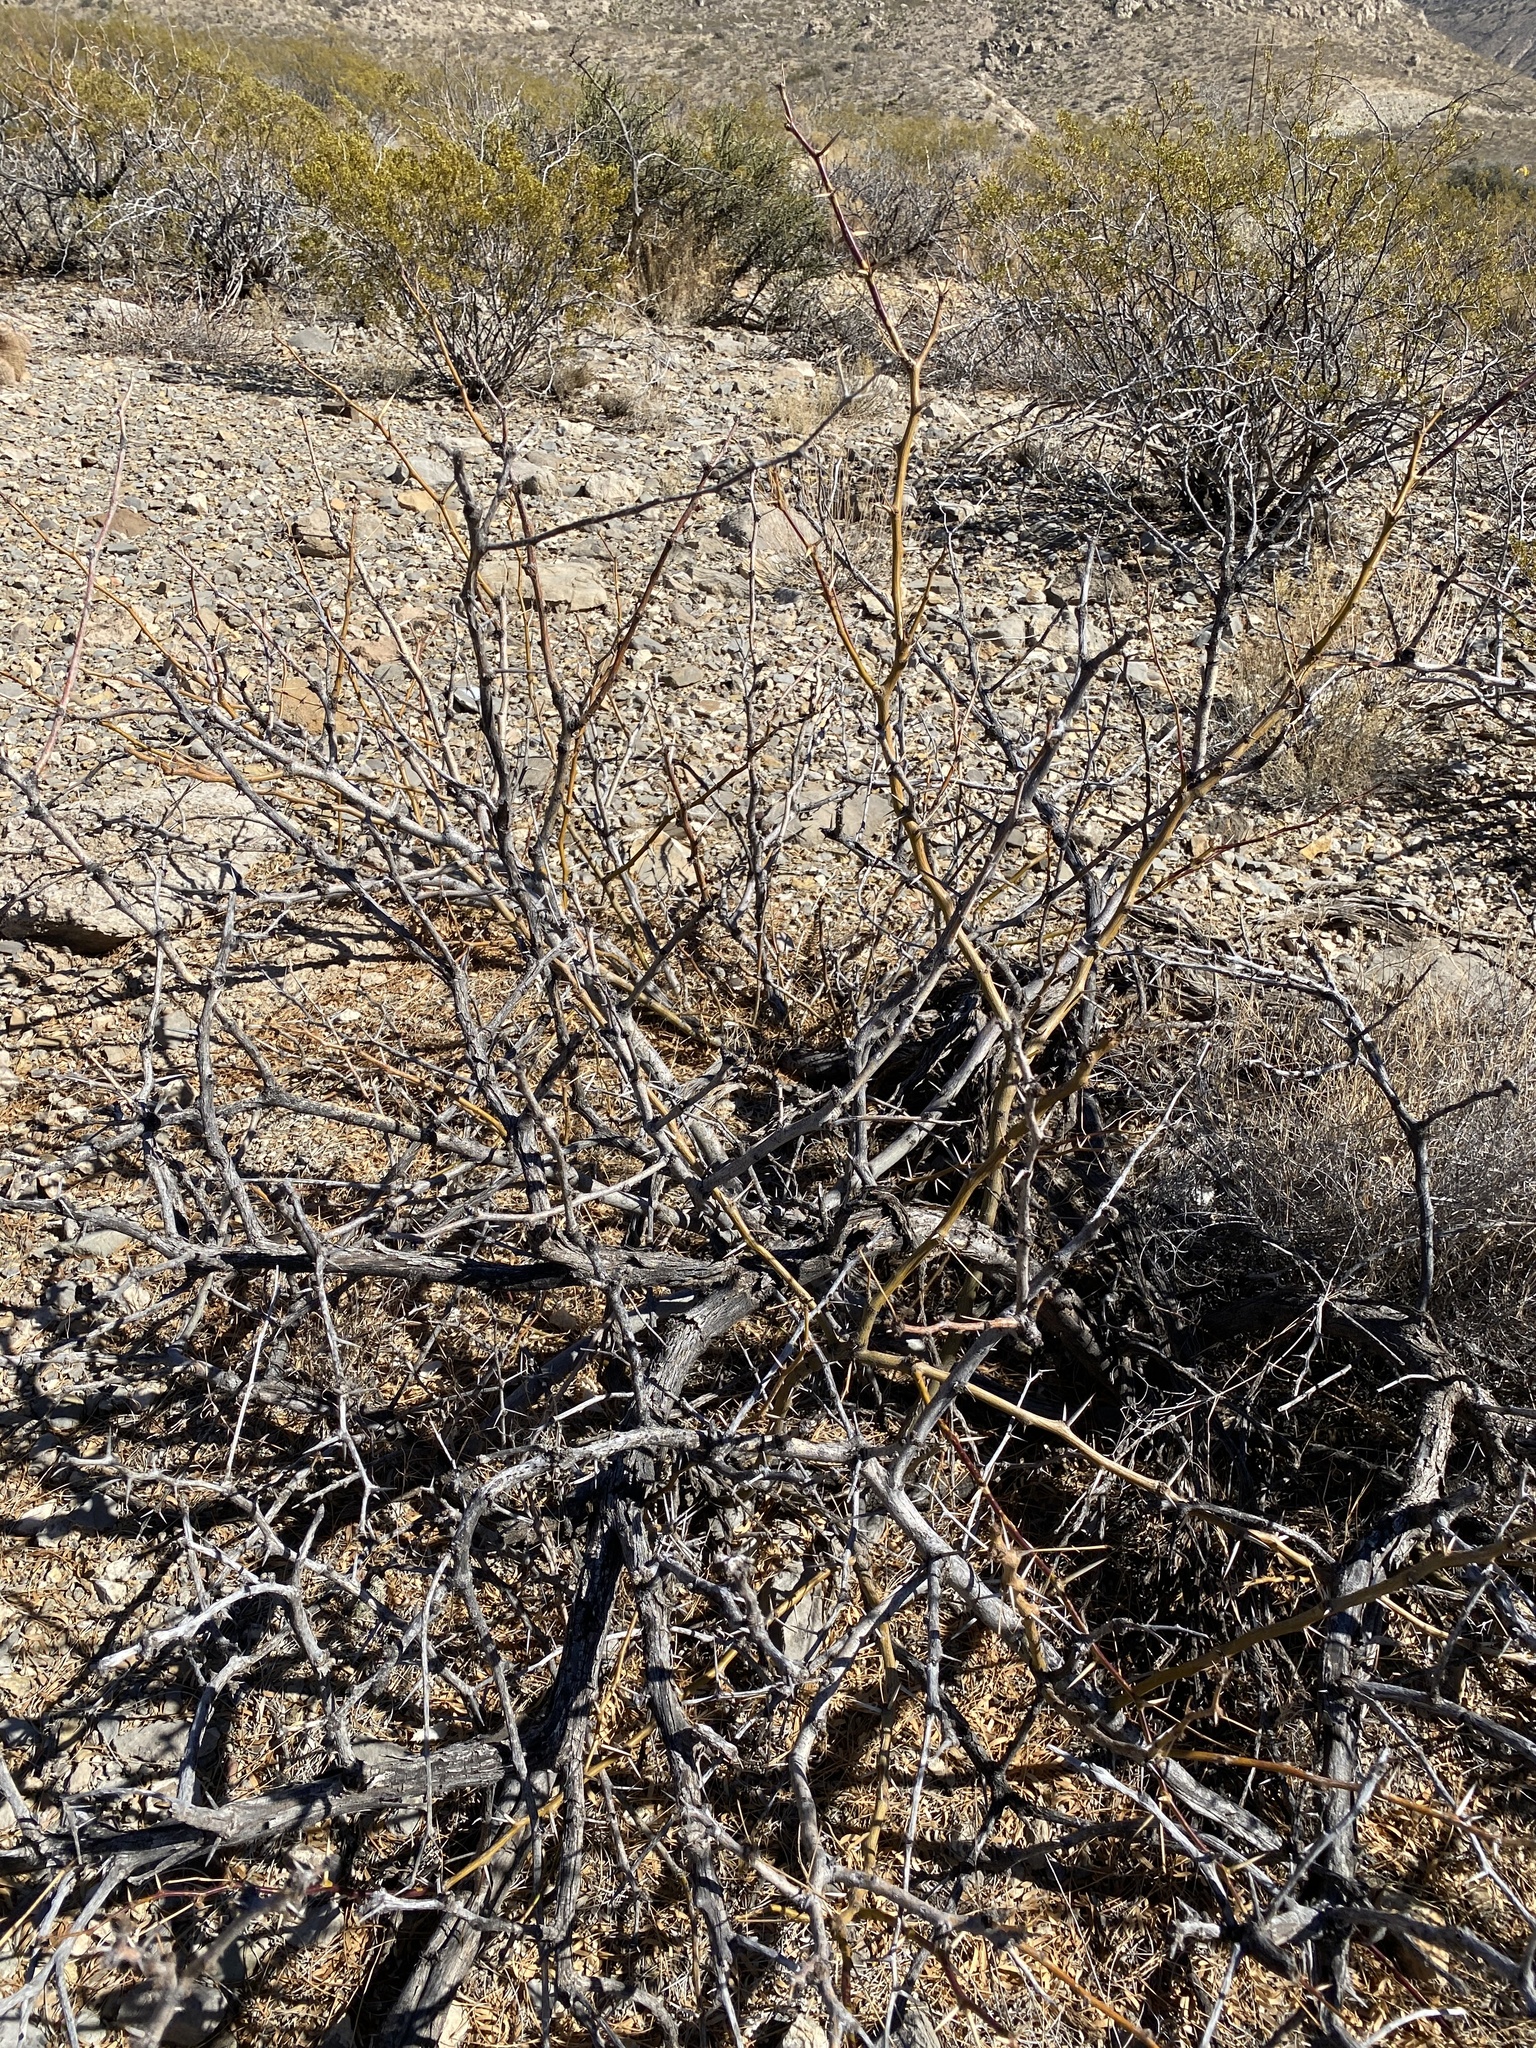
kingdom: Plantae
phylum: Tracheophyta
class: Magnoliopsida
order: Fabales
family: Fabaceae
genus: Prosopis
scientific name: Prosopis glandulosa
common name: Honey mesquite
